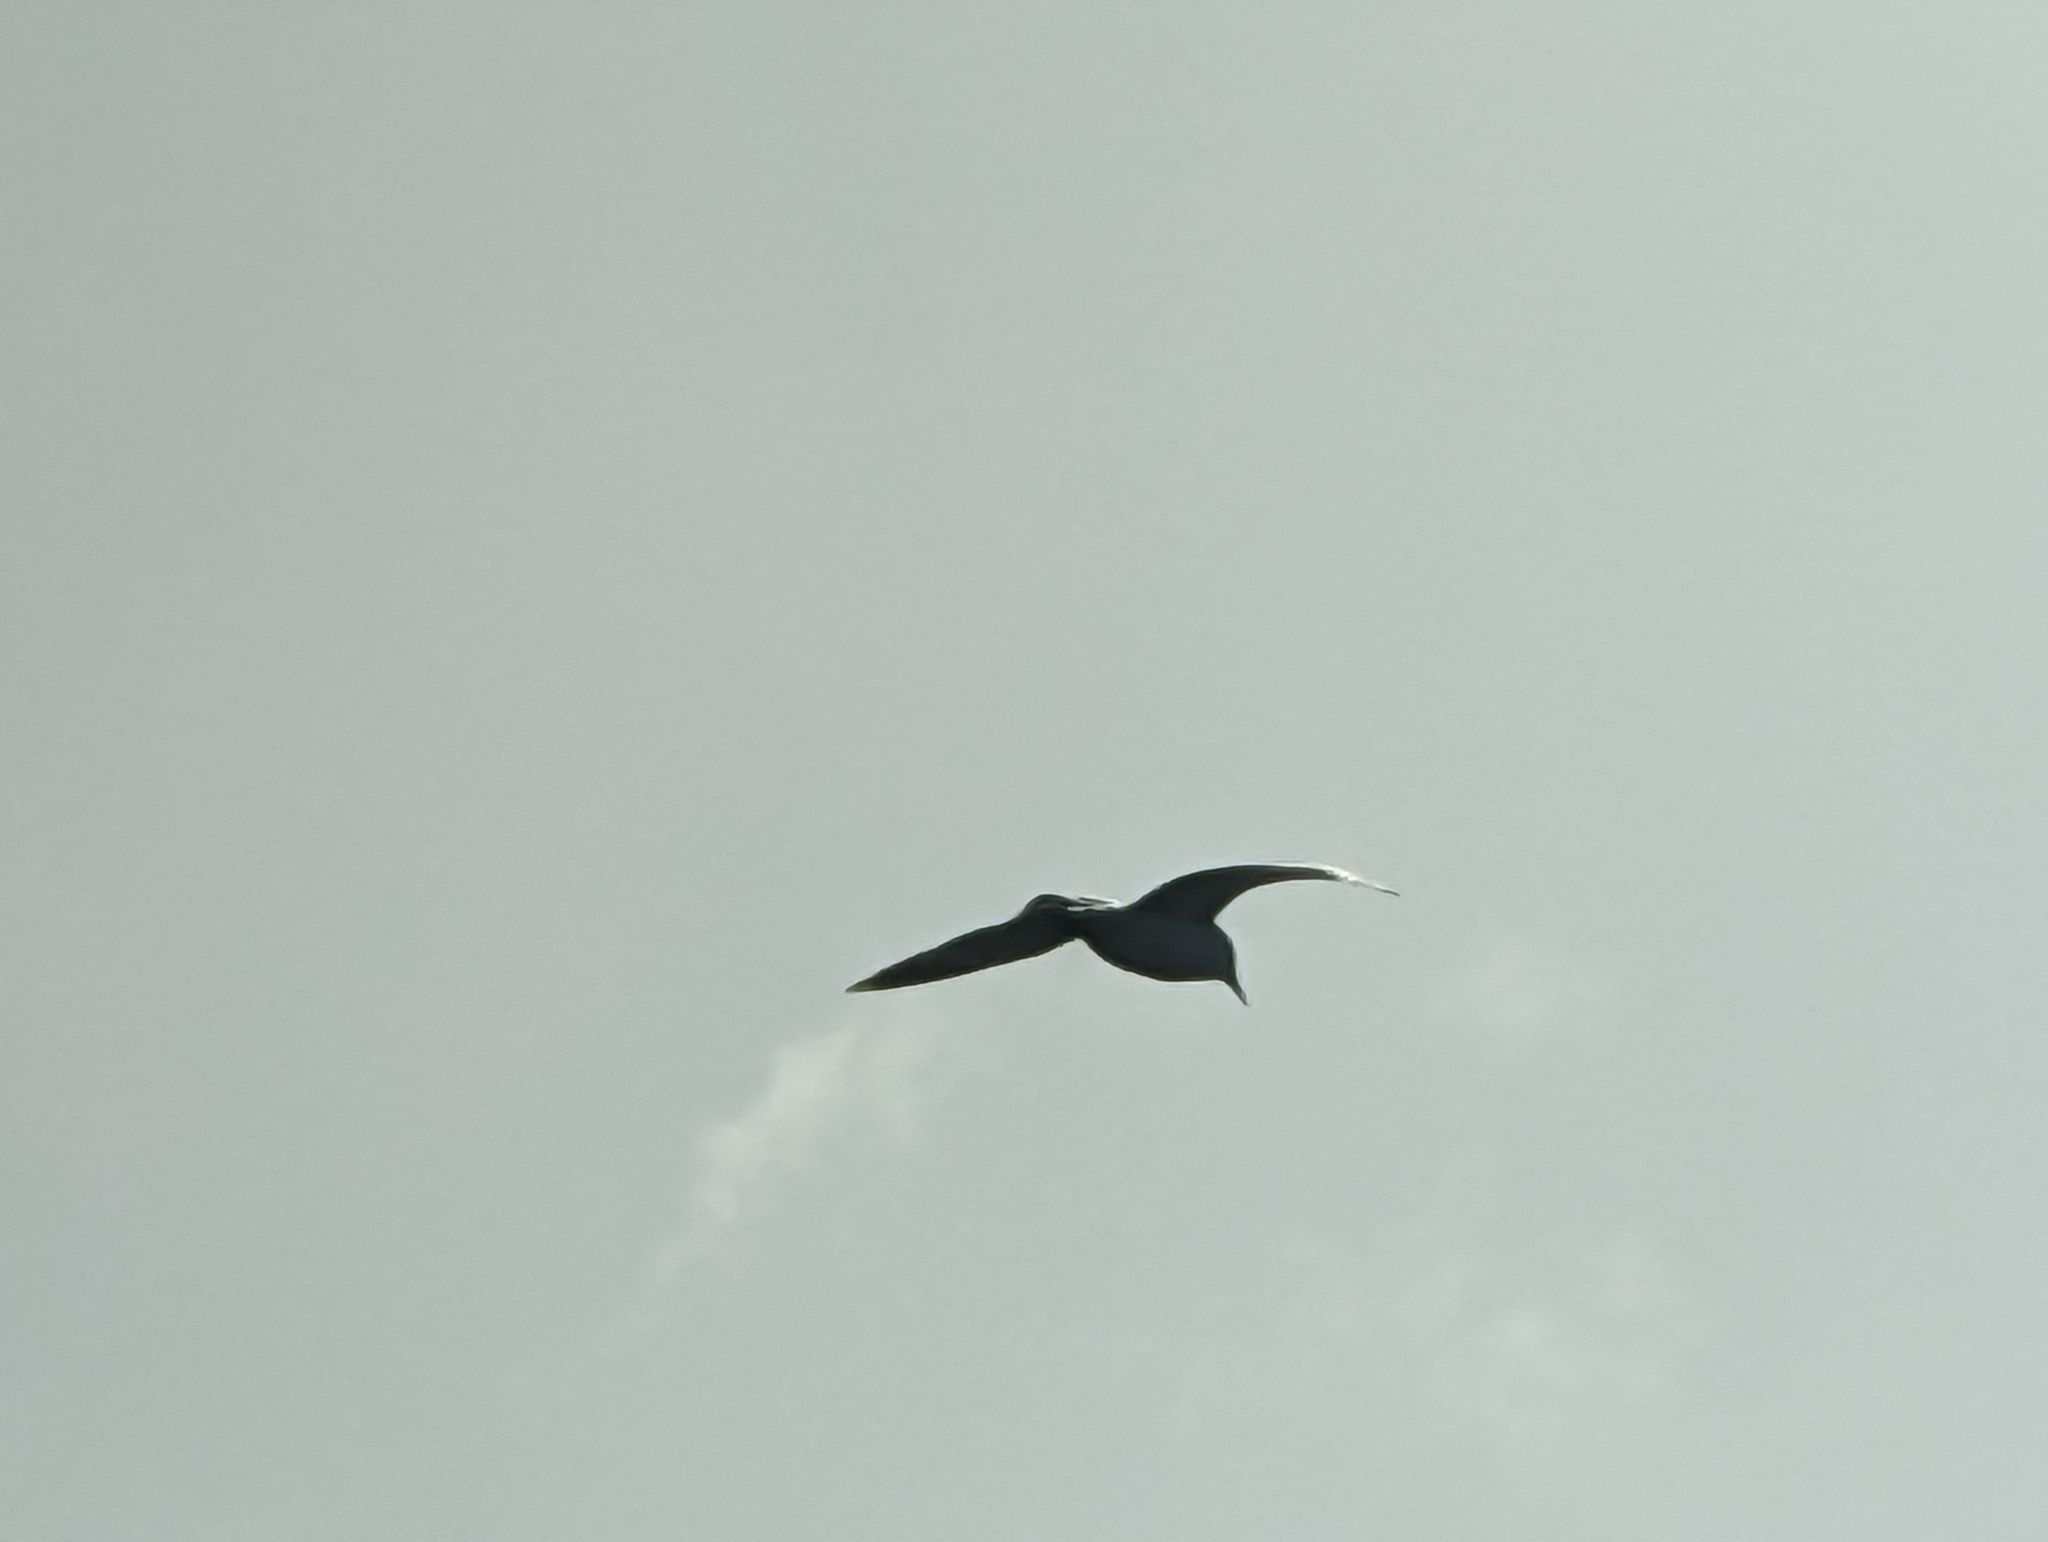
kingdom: Animalia
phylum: Chordata
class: Aves
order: Charadriiformes
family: Laridae
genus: Larus
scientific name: Larus
